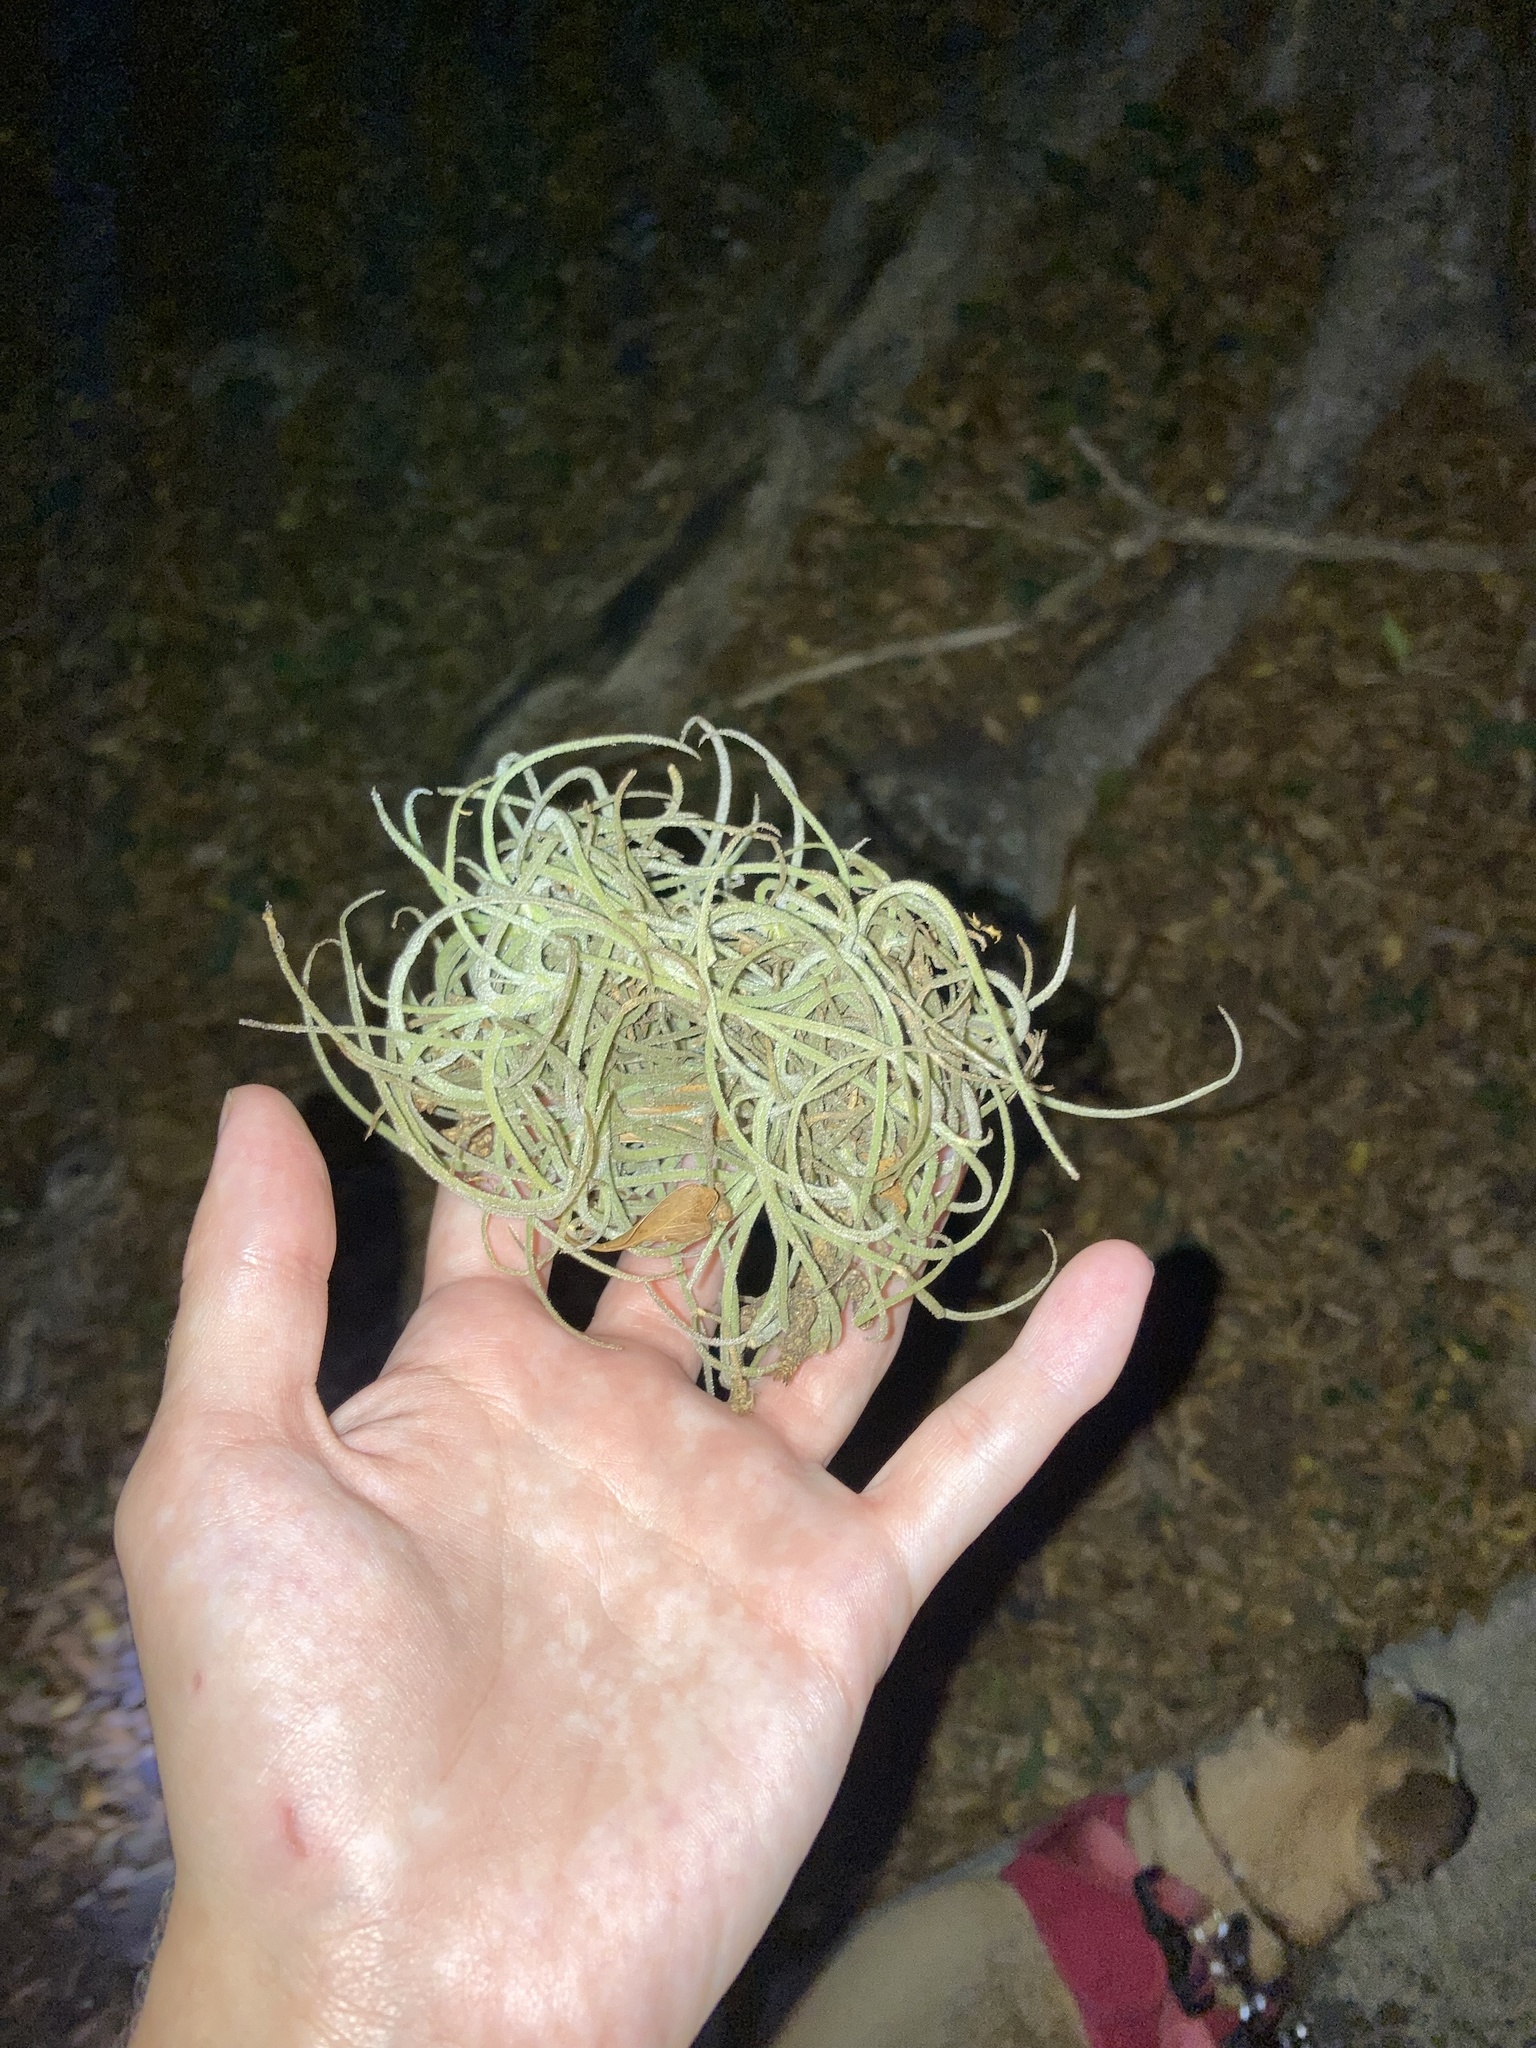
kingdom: Plantae
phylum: Tracheophyta
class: Liliopsida
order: Poales
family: Bromeliaceae
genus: Tillandsia
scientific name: Tillandsia recurvata
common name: Small ballmoss
